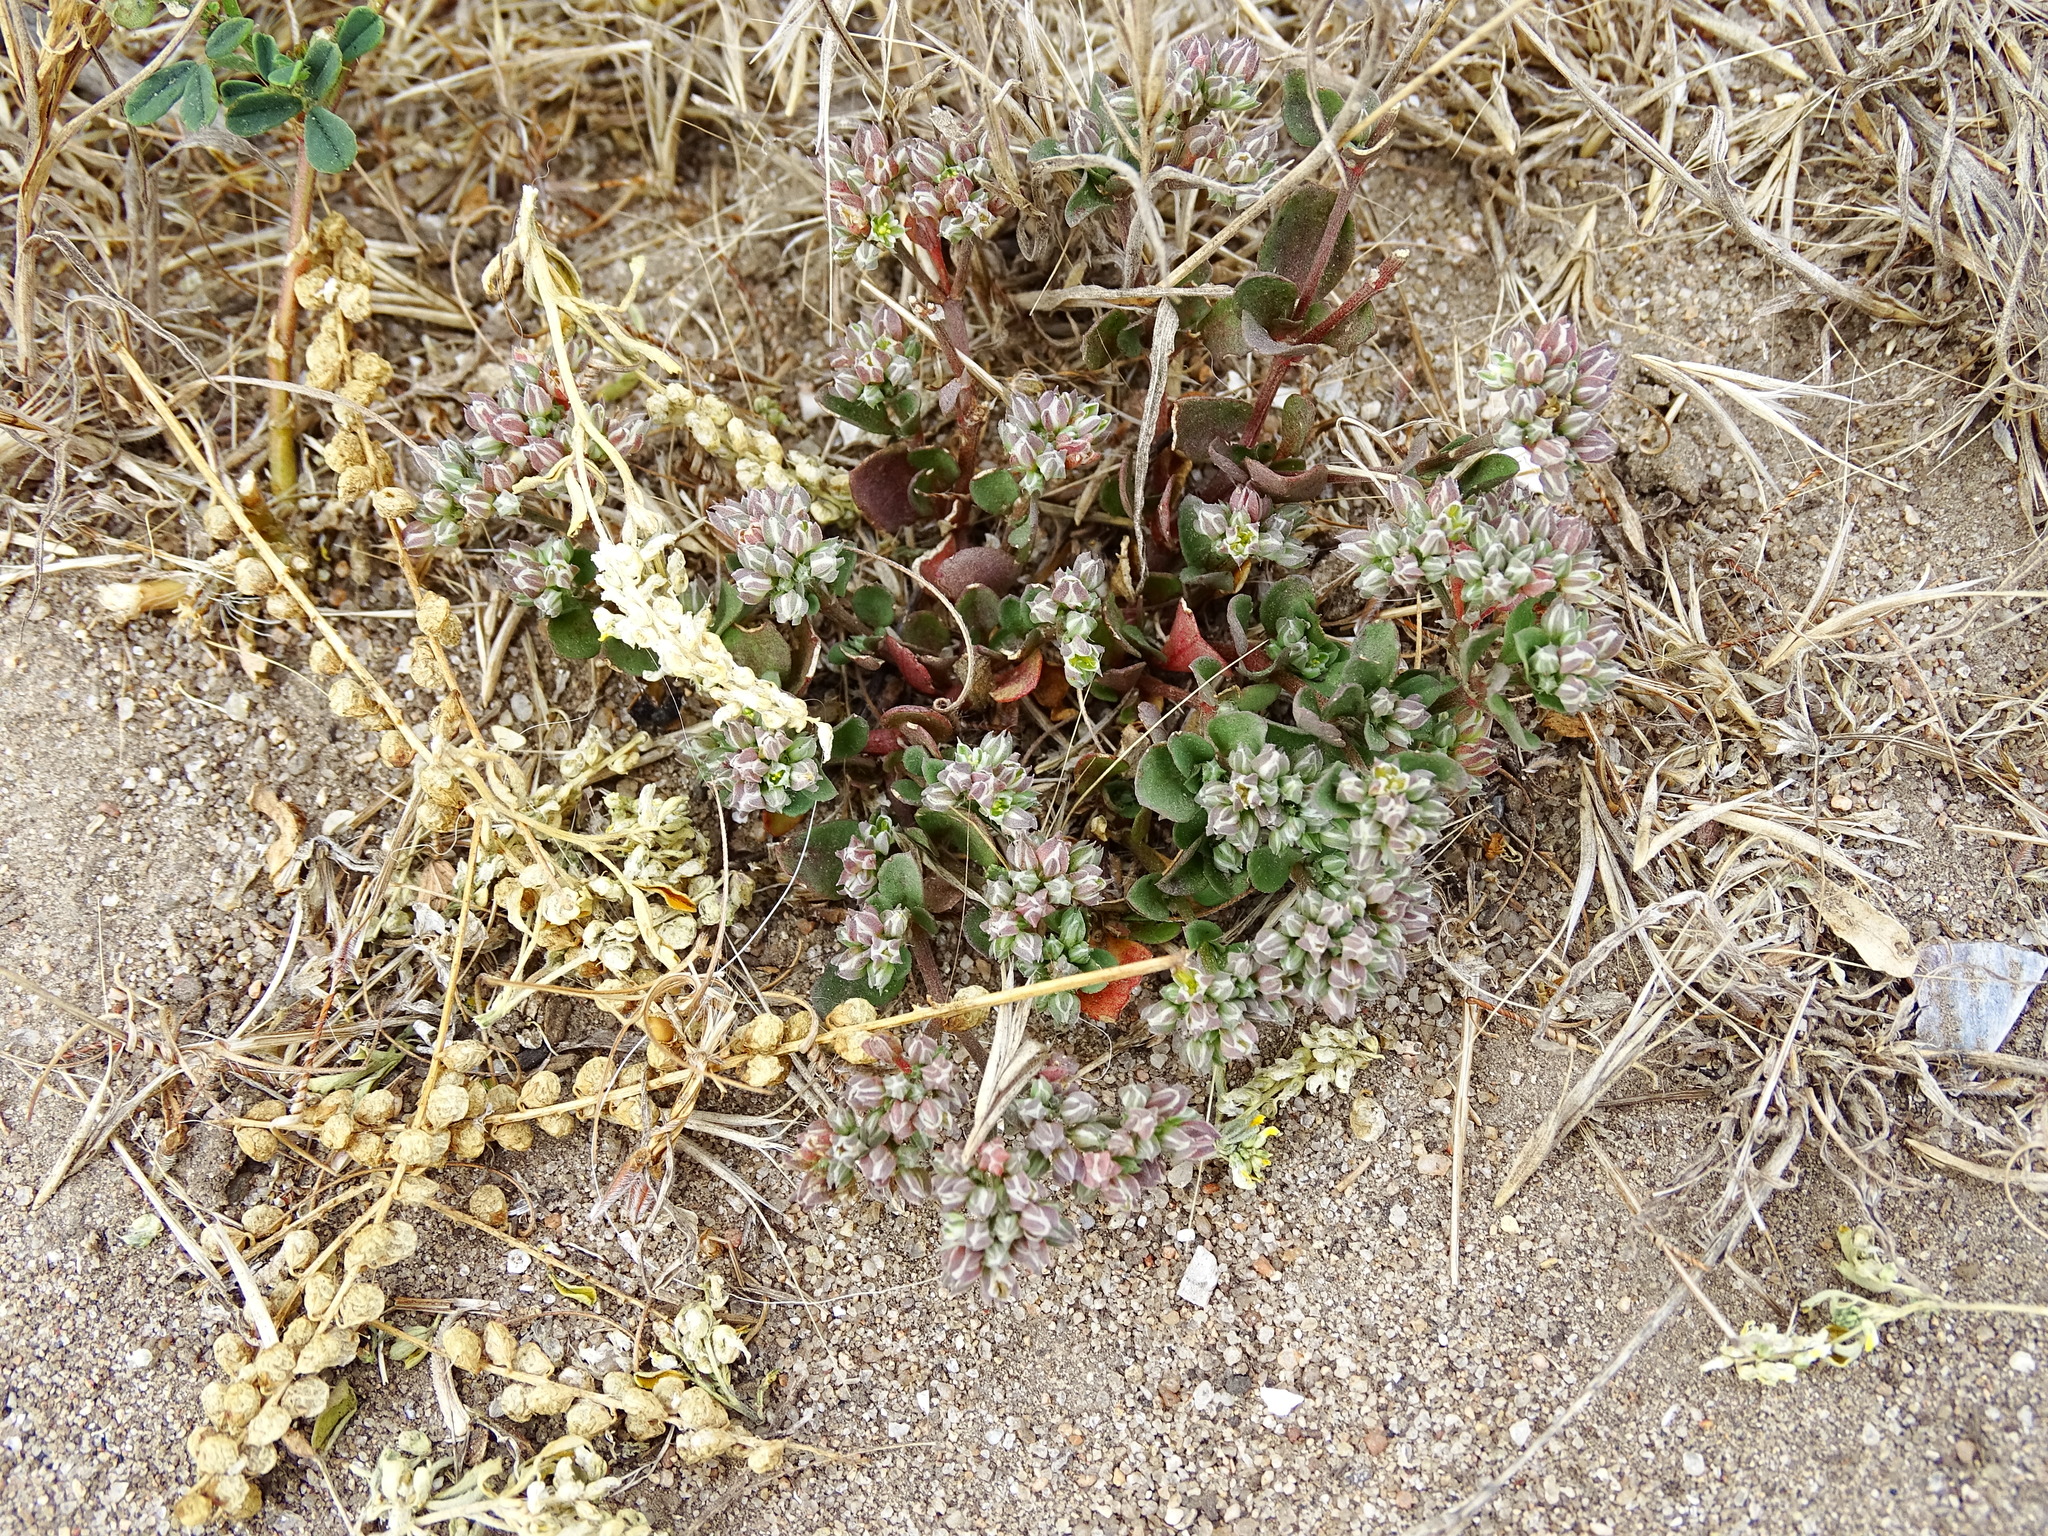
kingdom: Plantae
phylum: Tracheophyta
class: Magnoliopsida
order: Caryophyllales
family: Caryophyllaceae
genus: Polycarpon
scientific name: Polycarpon tetraphyllum
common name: Four-leaved all-seed
